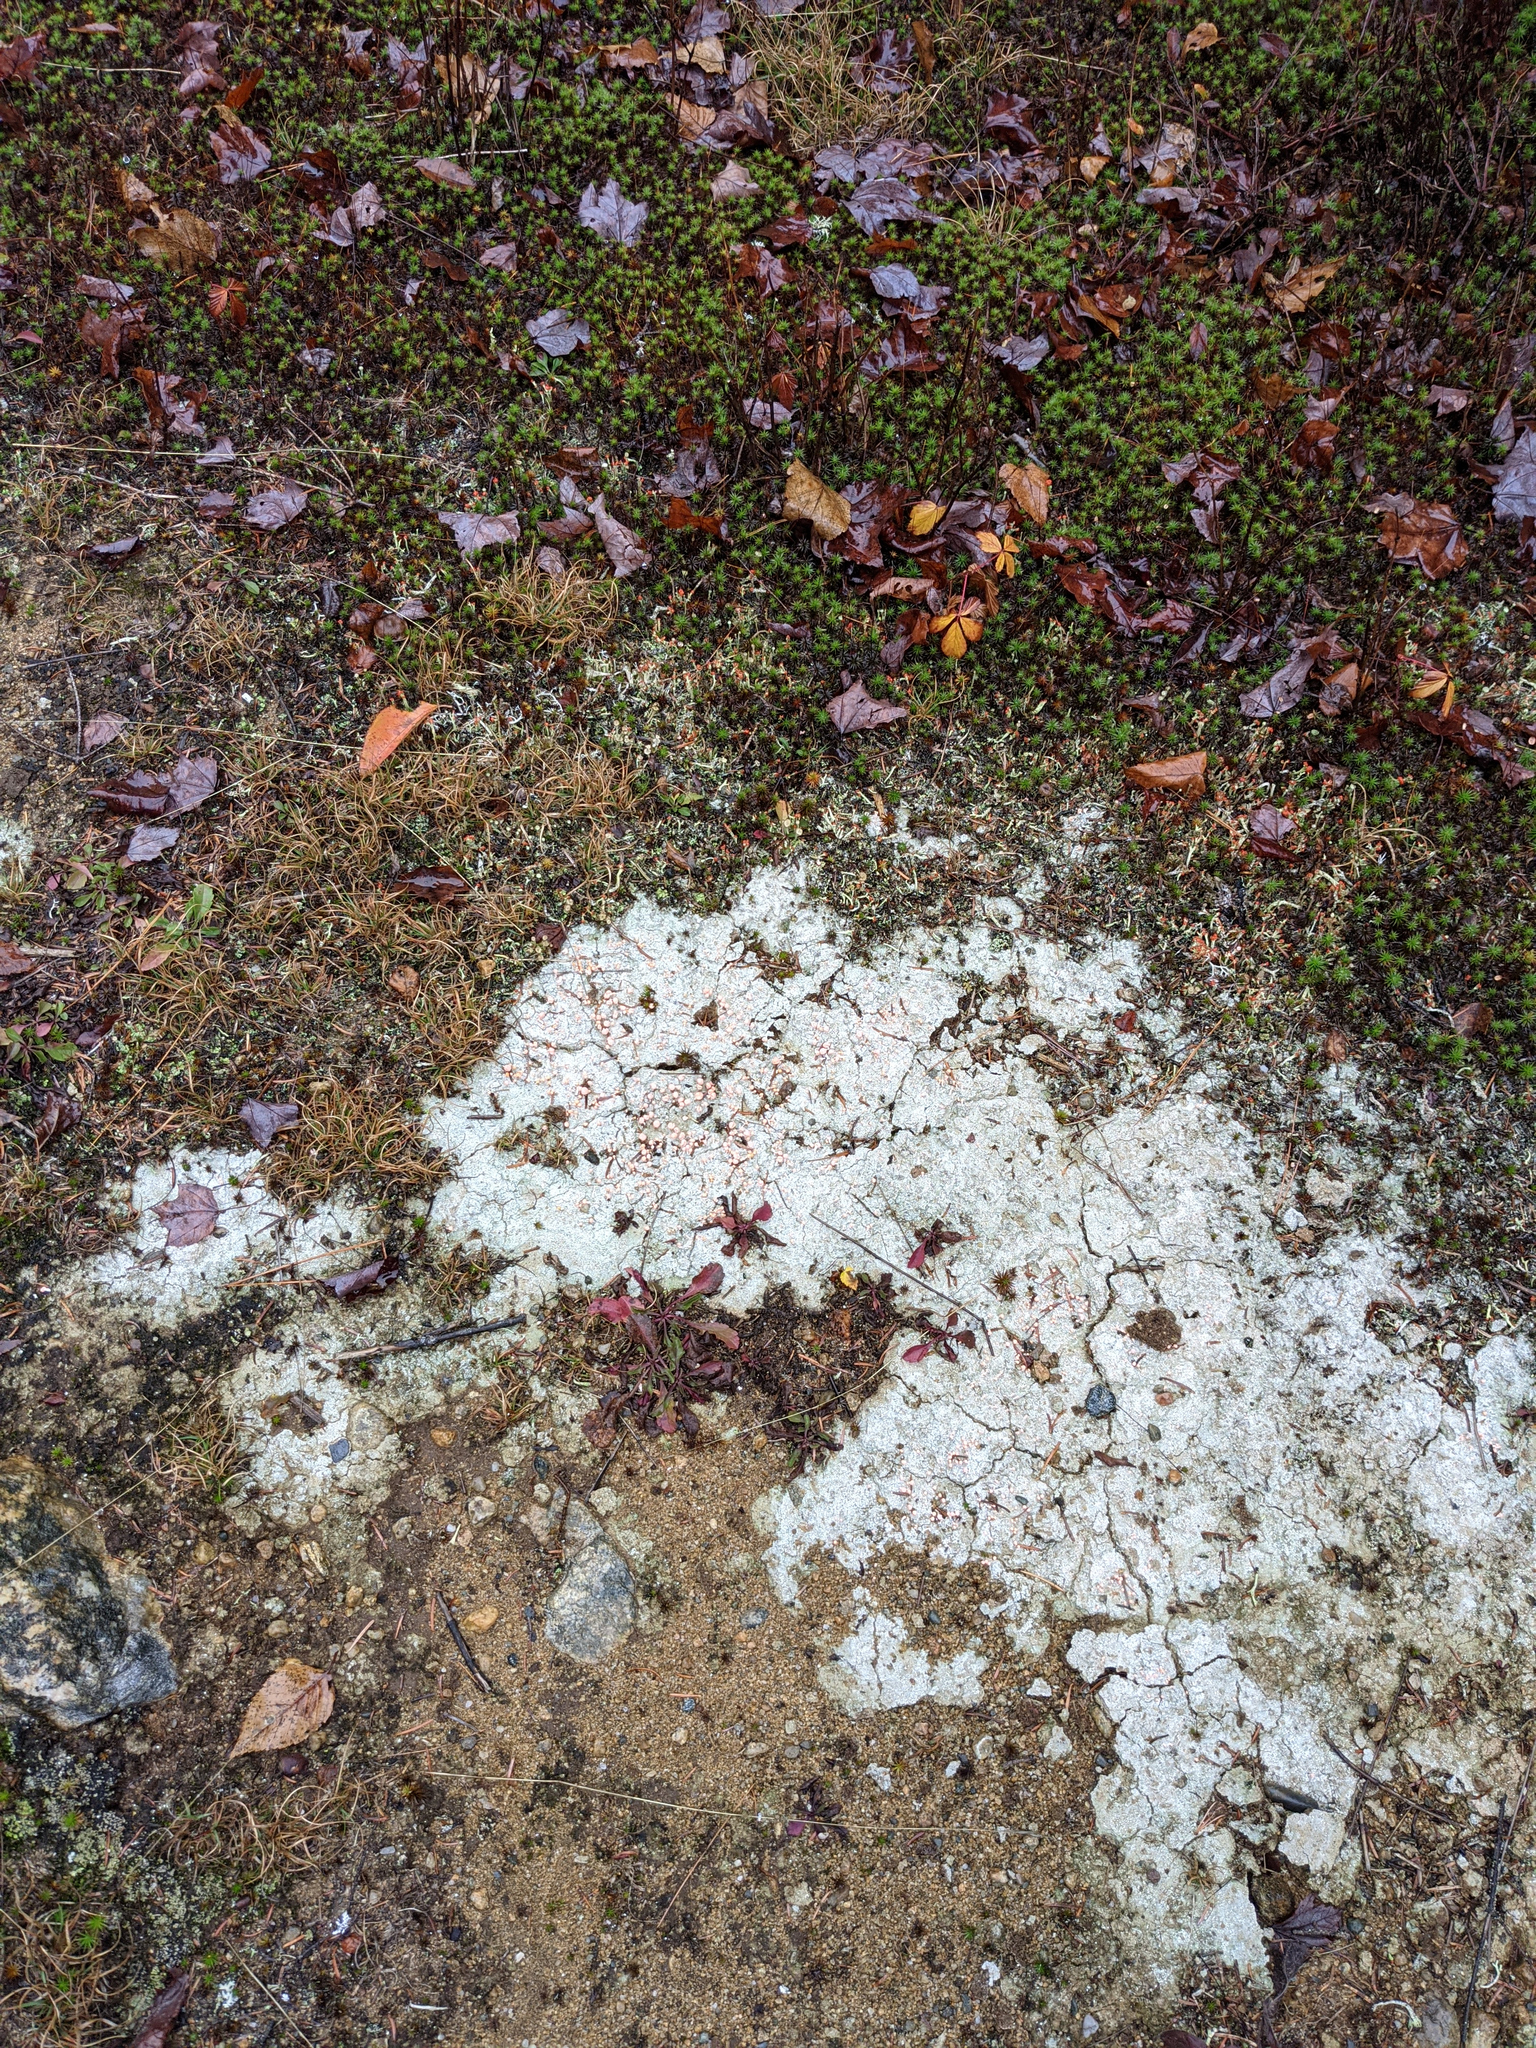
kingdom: Fungi
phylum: Ascomycota
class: Lecanoromycetes
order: Pertusariales
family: Icmadophilaceae
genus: Dibaeis
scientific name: Dibaeis baeomyces
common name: Pink earth lichen
